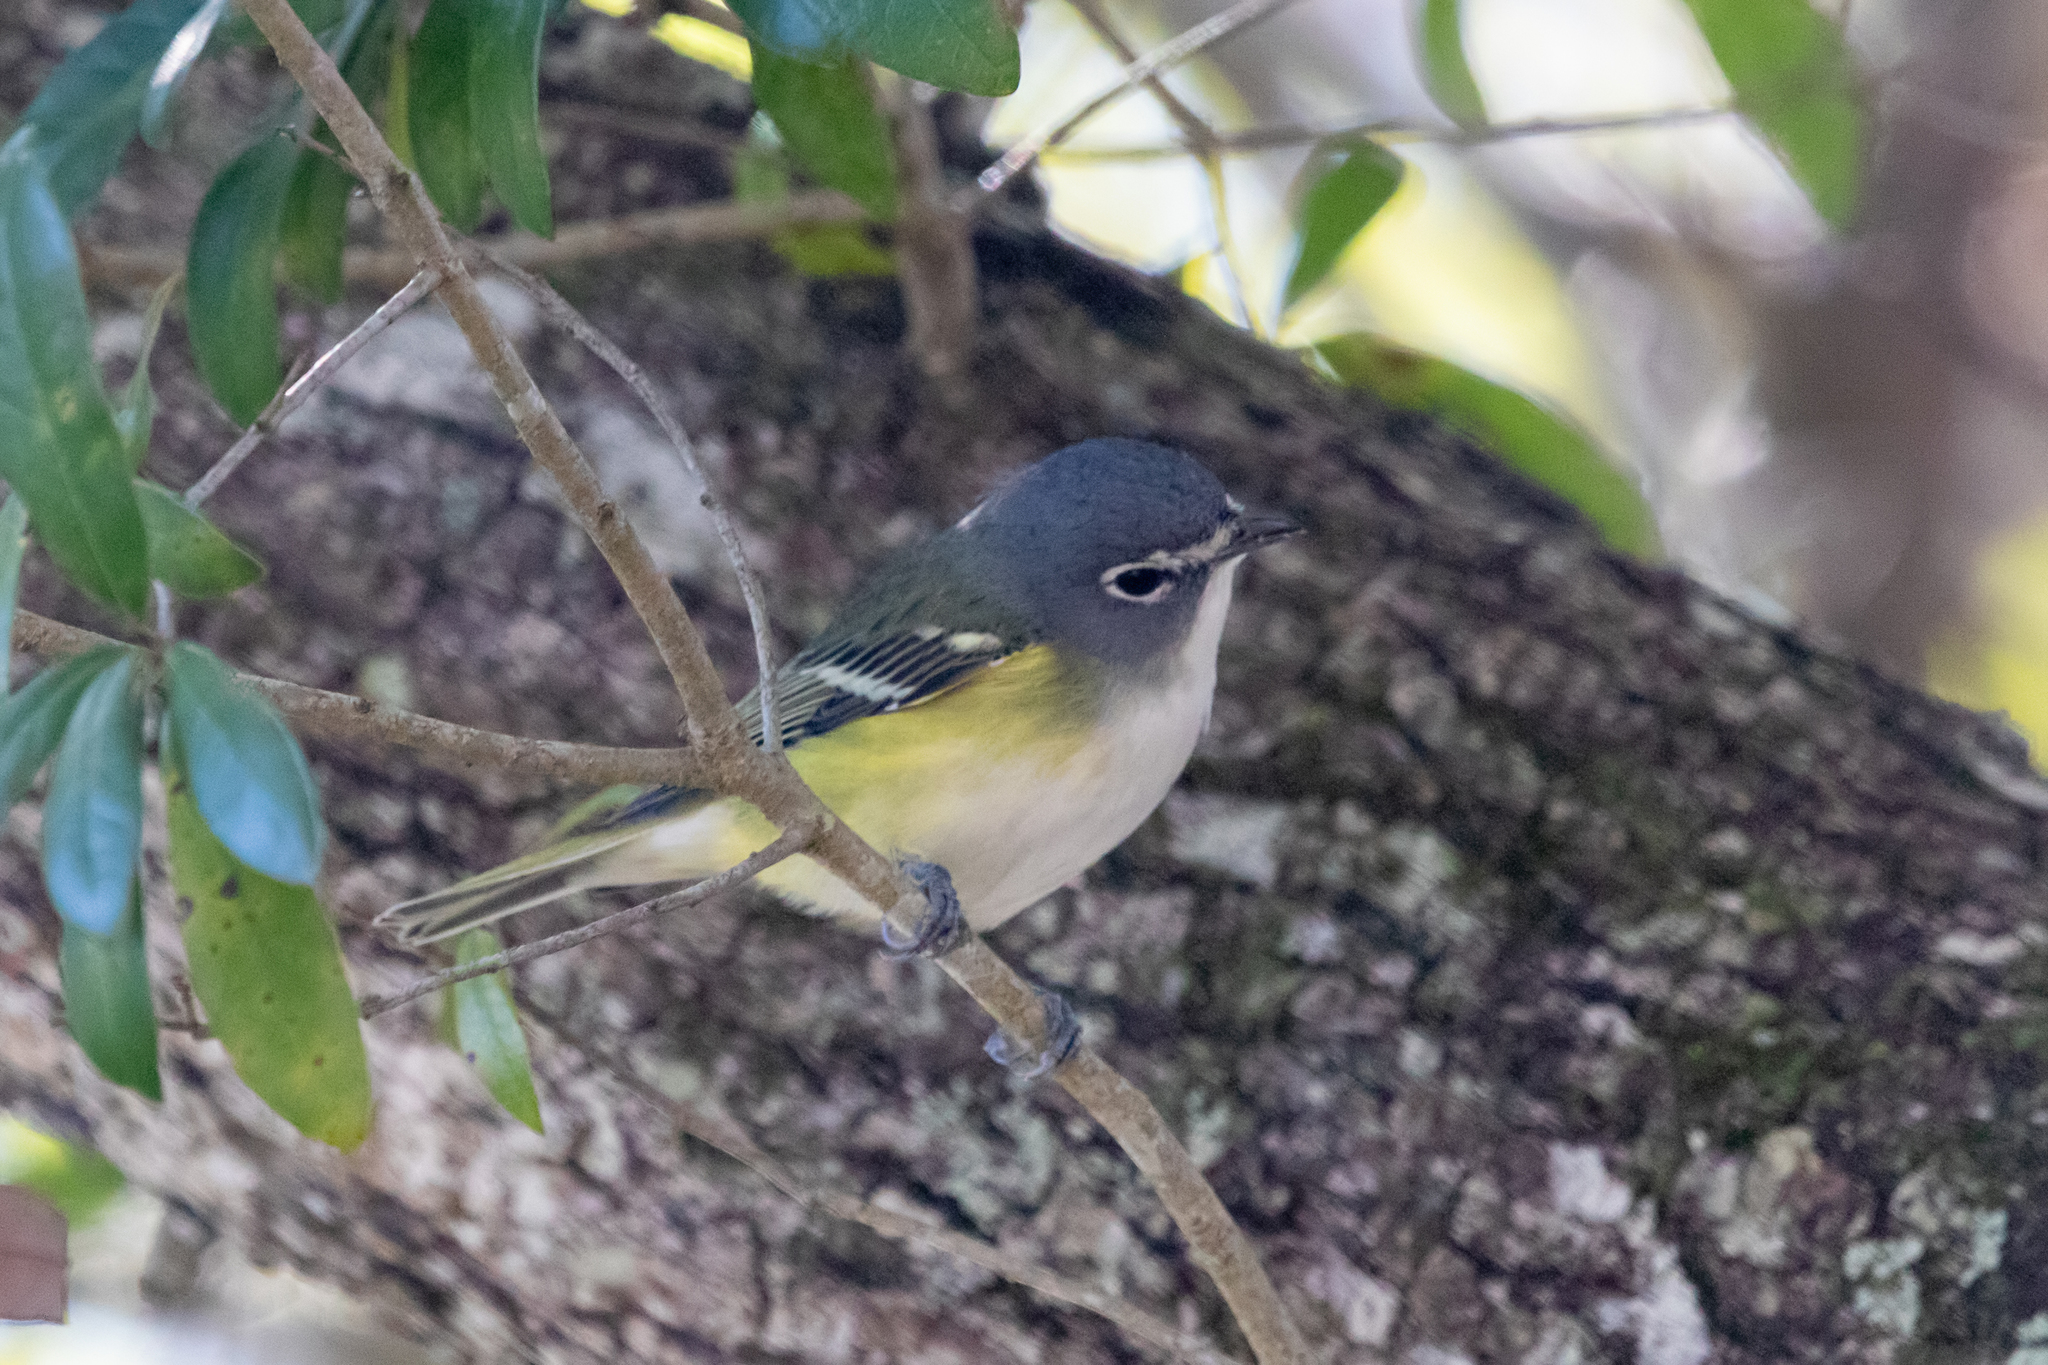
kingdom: Animalia
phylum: Chordata
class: Aves
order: Passeriformes
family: Vireonidae
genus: Vireo
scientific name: Vireo solitarius
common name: Blue-headed vireo
